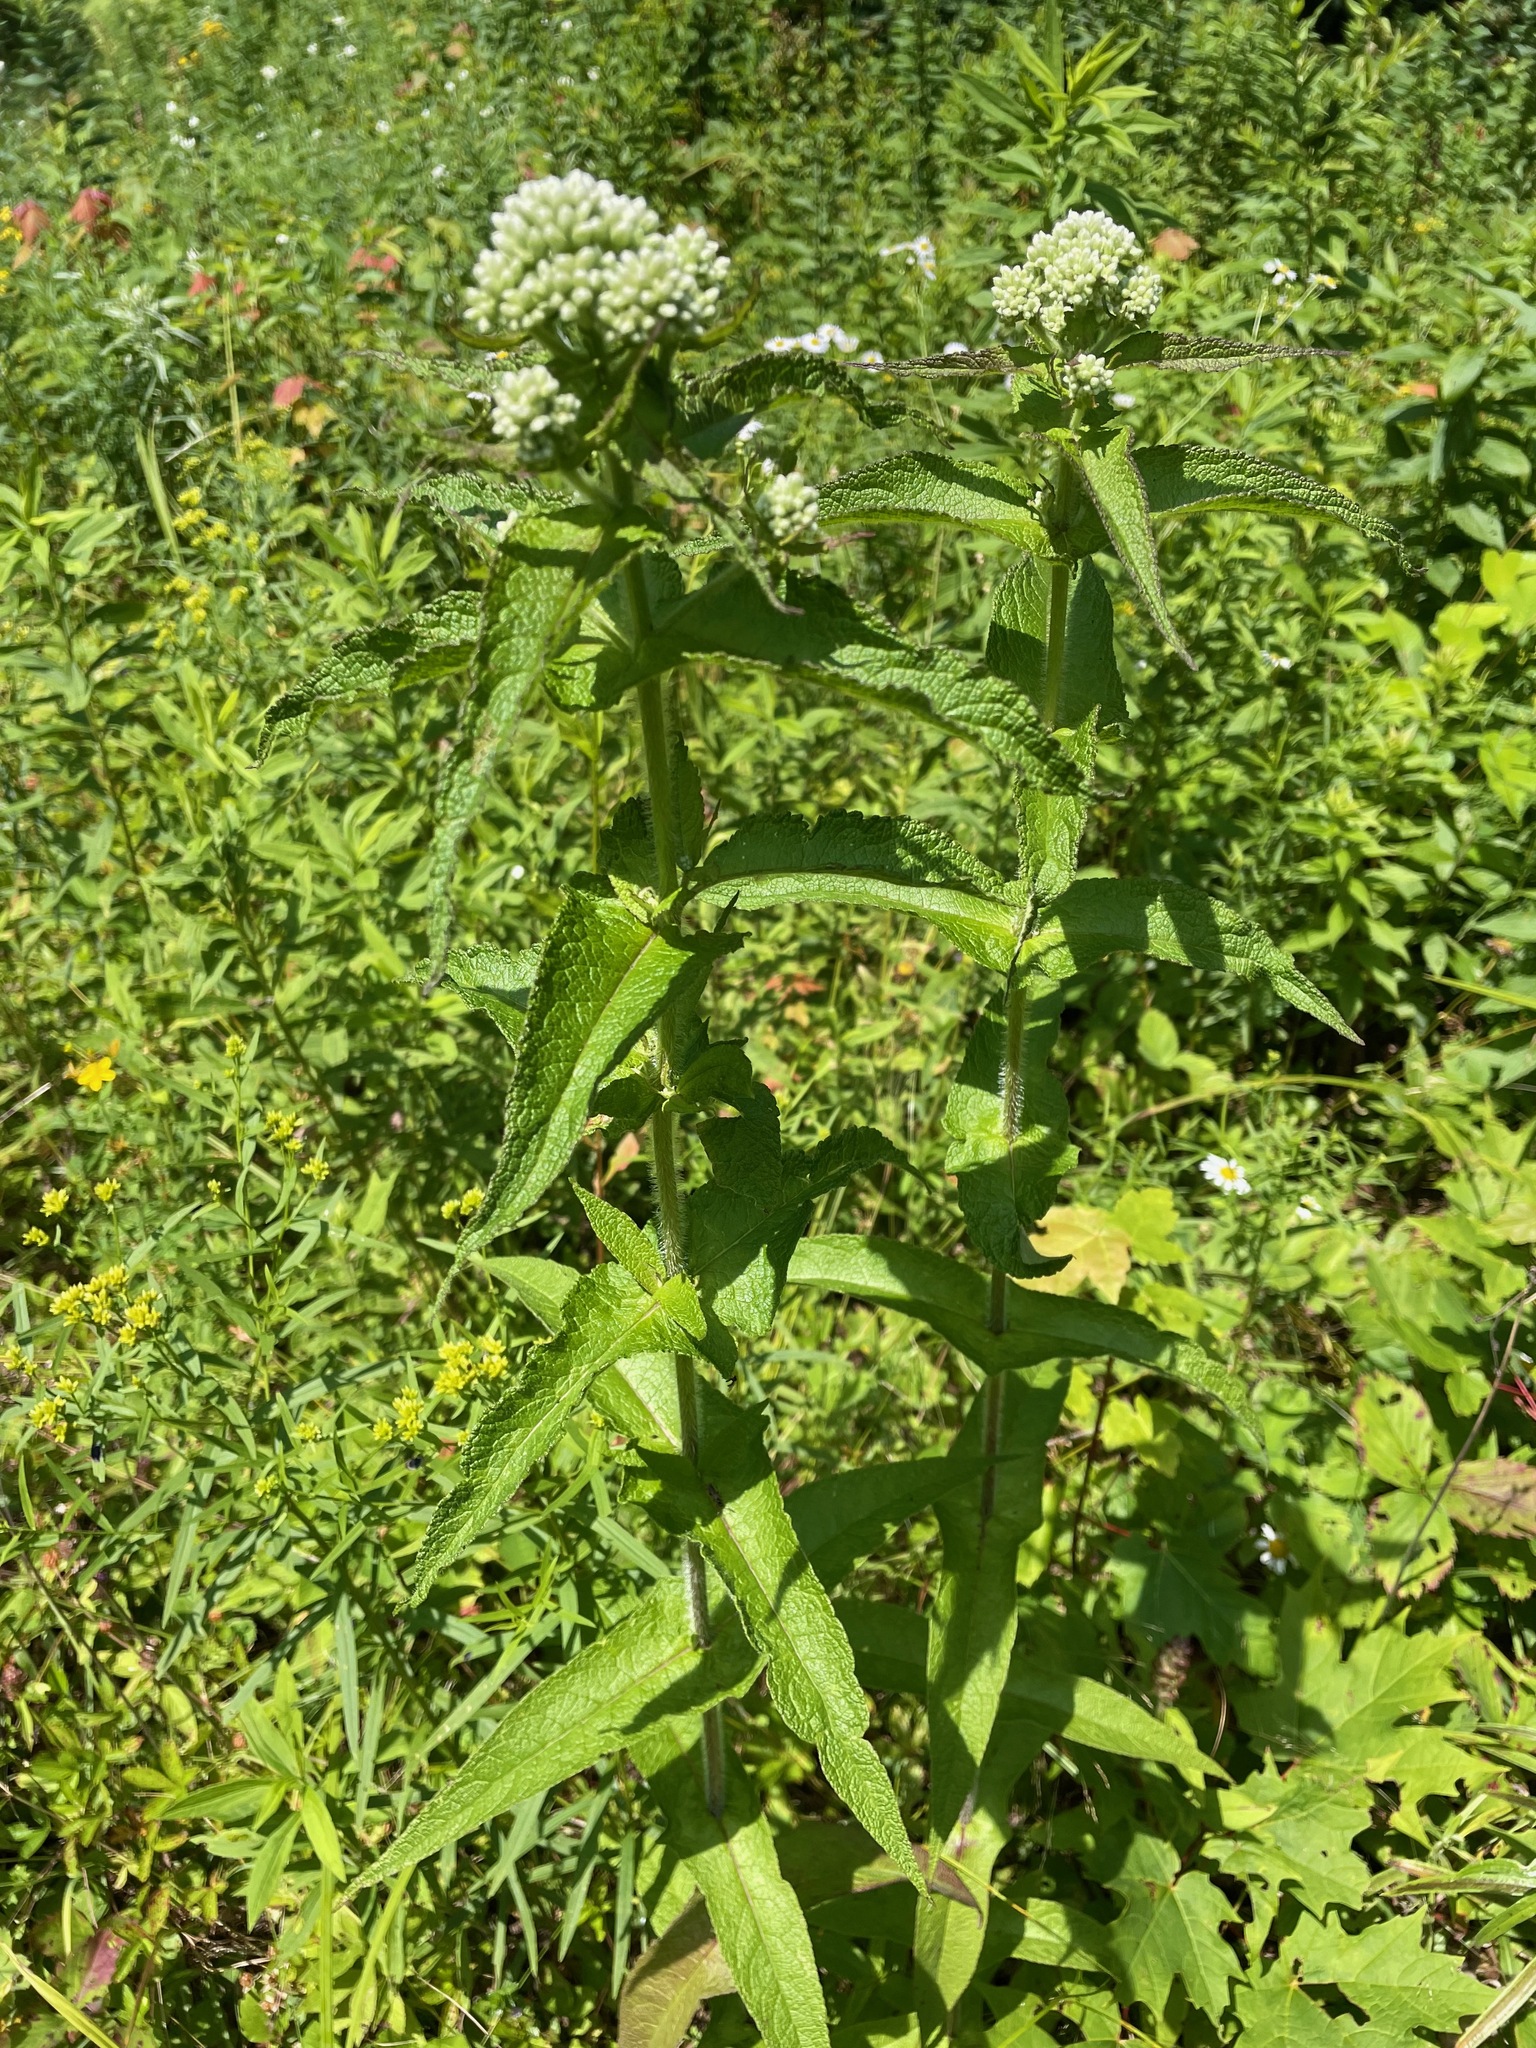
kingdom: Plantae
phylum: Tracheophyta
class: Magnoliopsida
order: Asterales
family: Asteraceae
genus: Eupatorium
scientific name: Eupatorium perfoliatum
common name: Boneset
